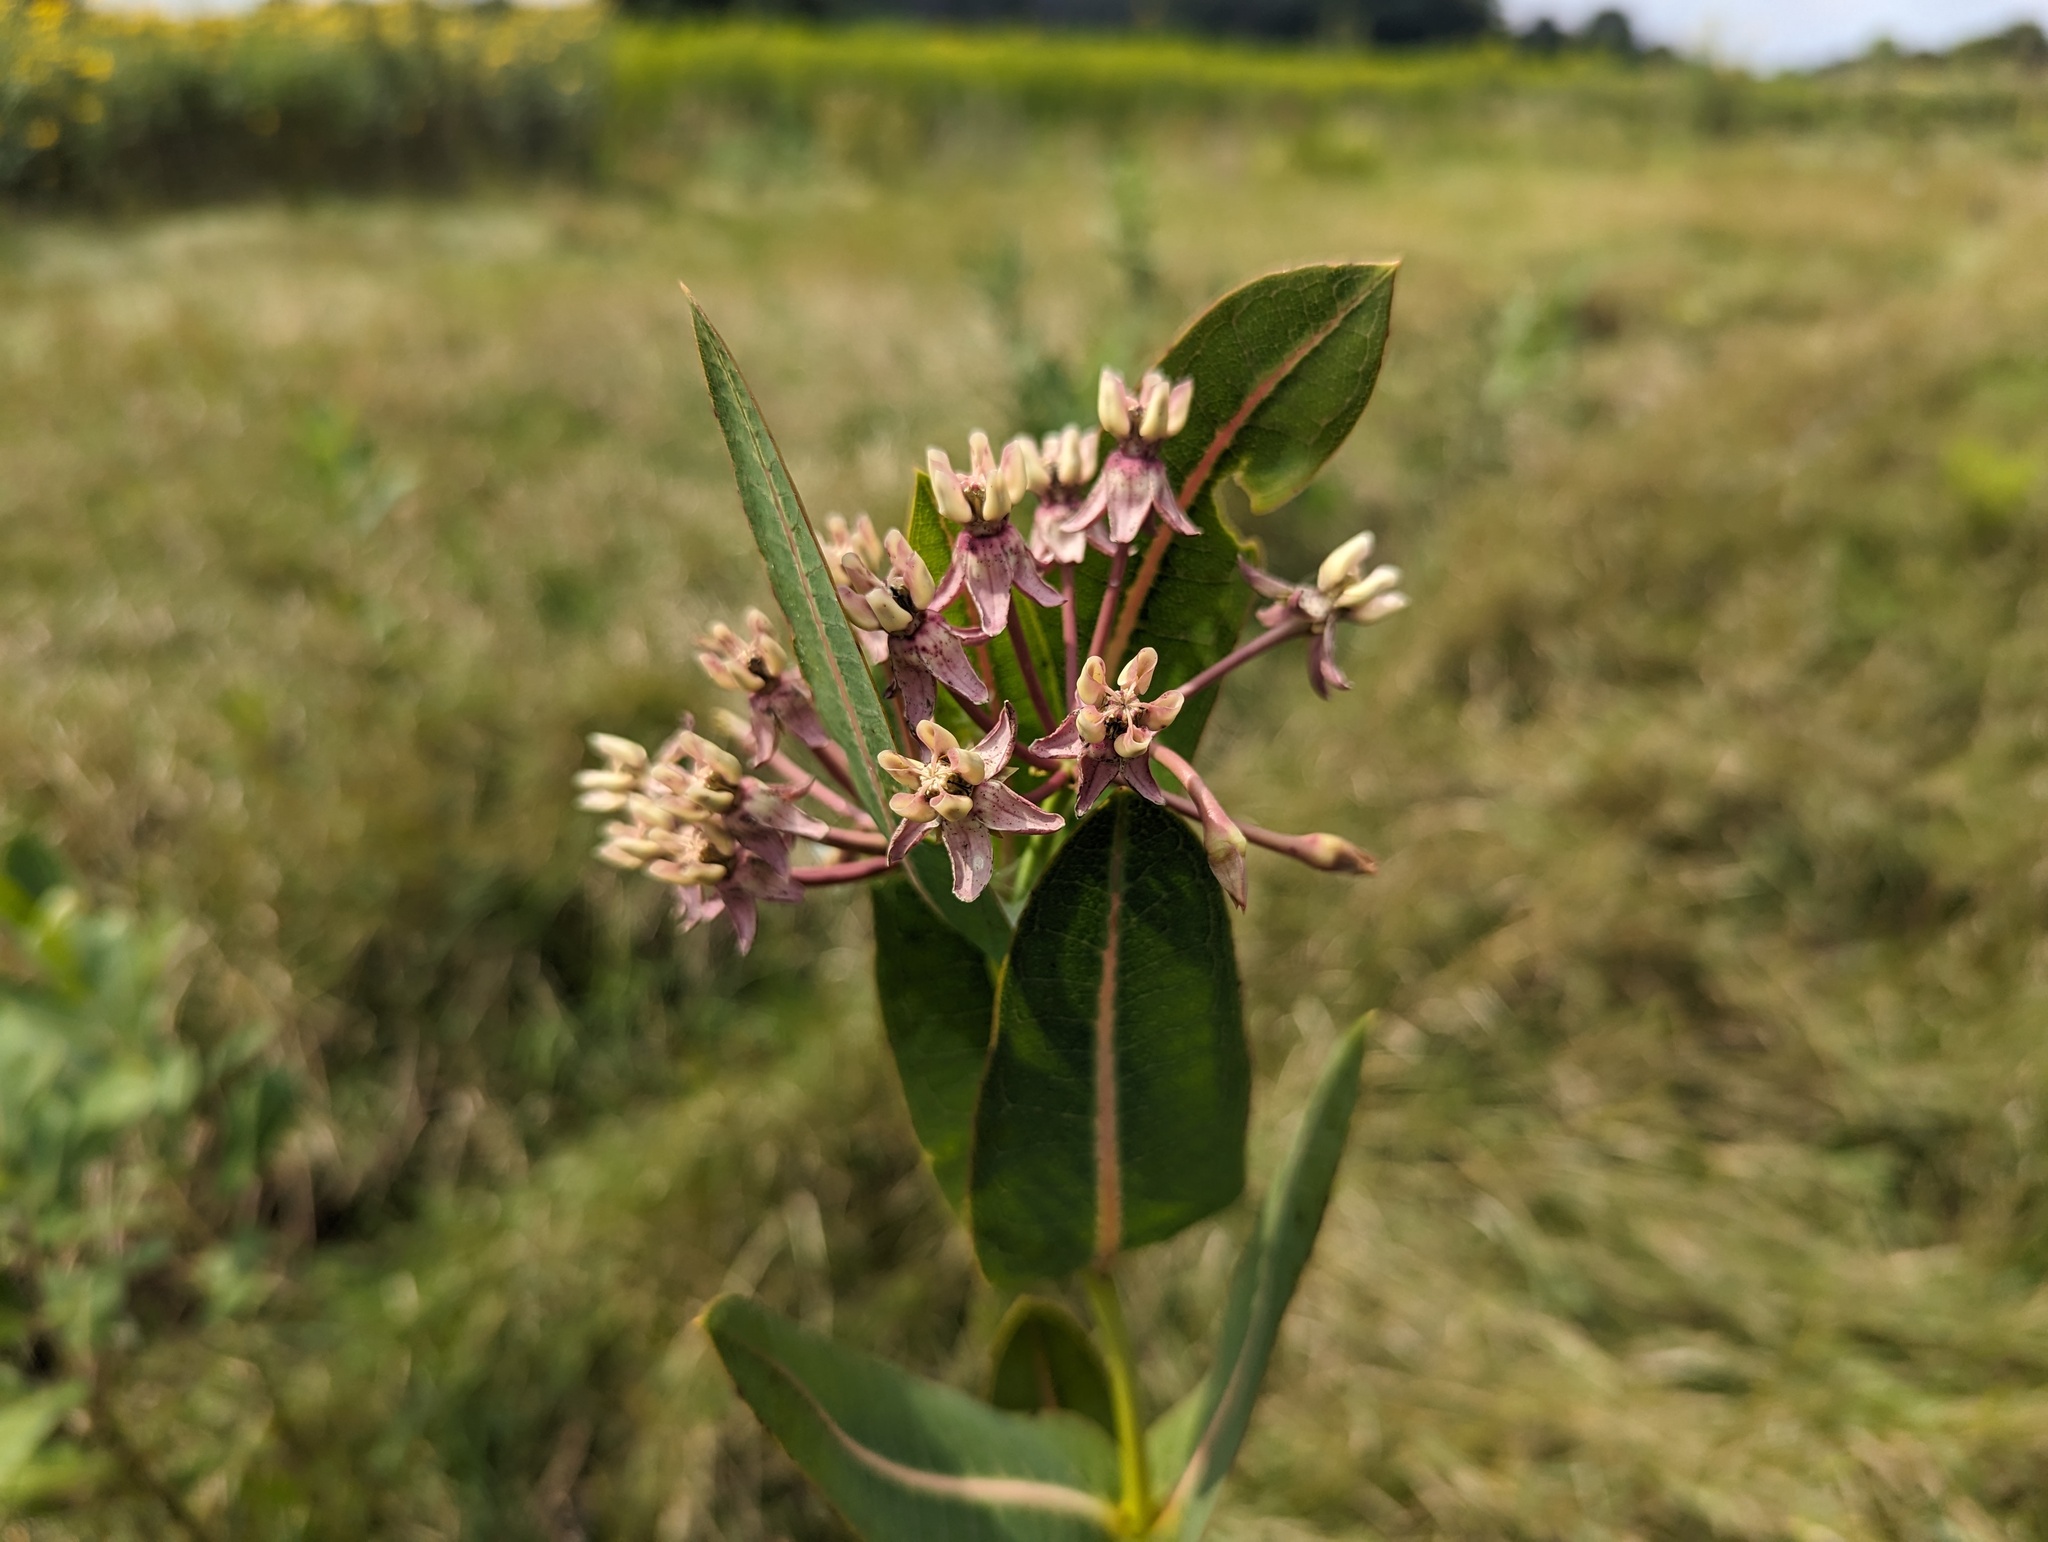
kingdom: Plantae
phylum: Tracheophyta
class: Magnoliopsida
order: Gentianales
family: Apocynaceae
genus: Asclepias
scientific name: Asclepias sullivantii
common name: Prairie milkweed
